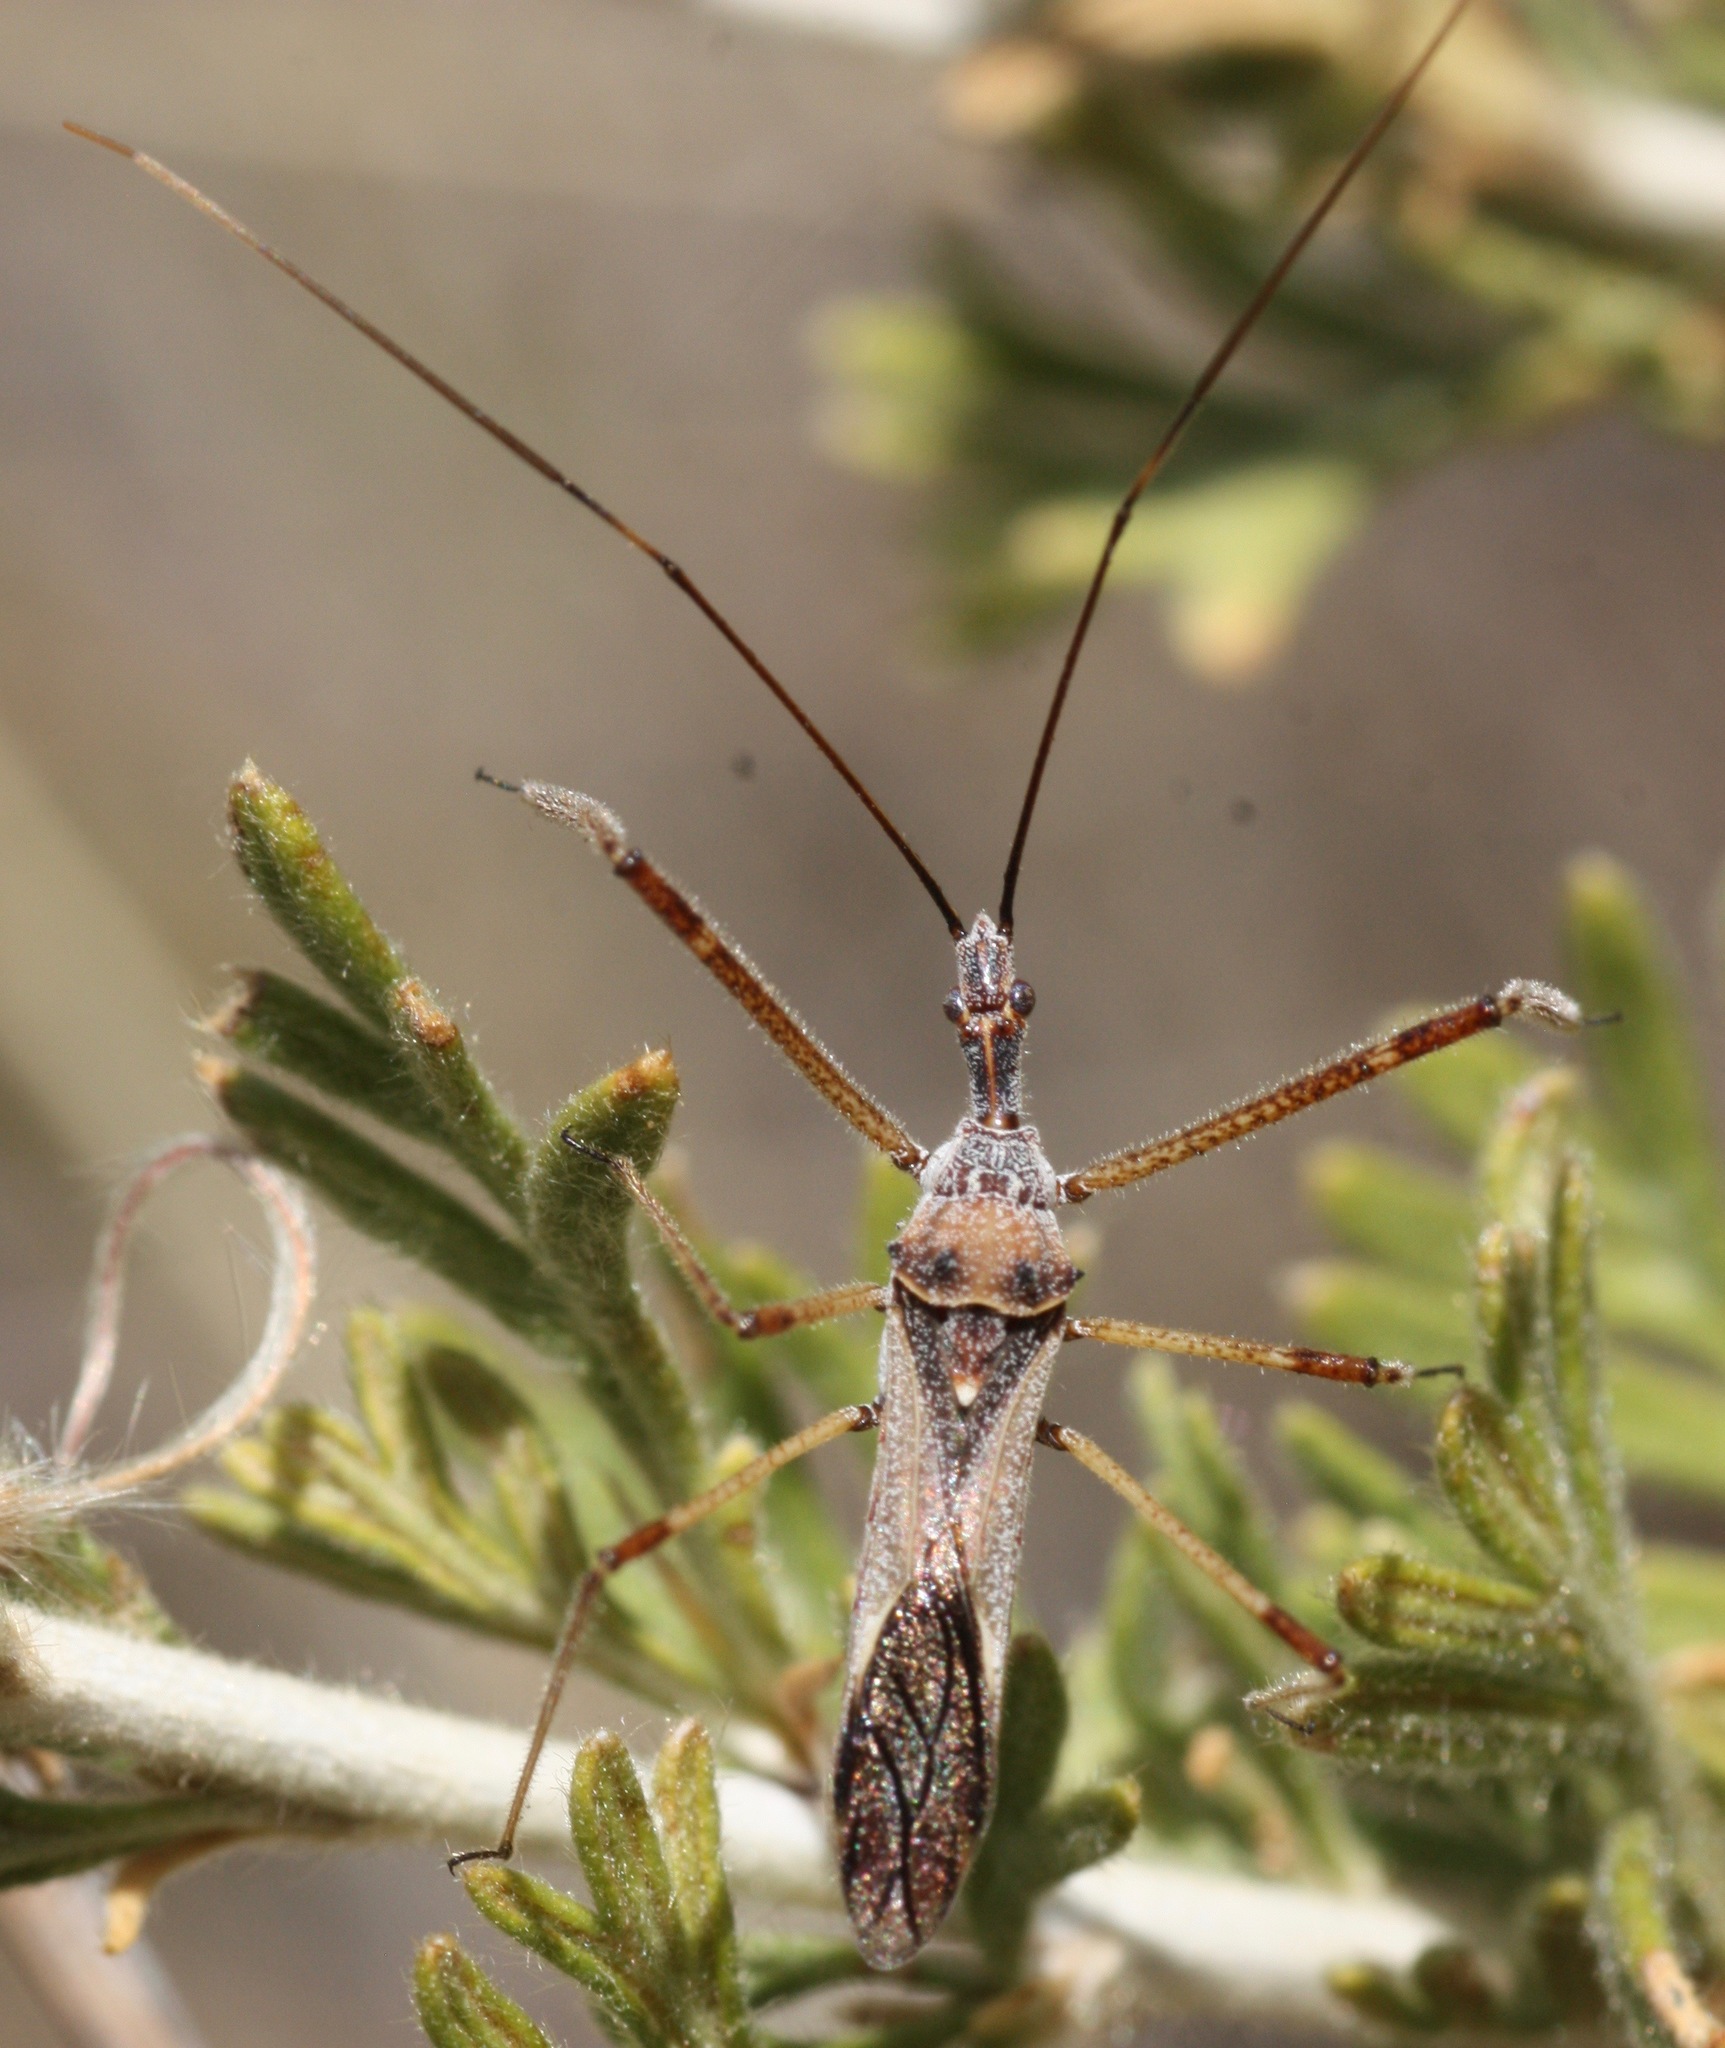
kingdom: Animalia
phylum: Arthropoda
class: Insecta
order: Hemiptera
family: Reduviidae
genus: Zelus
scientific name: Zelus tetracanthus
